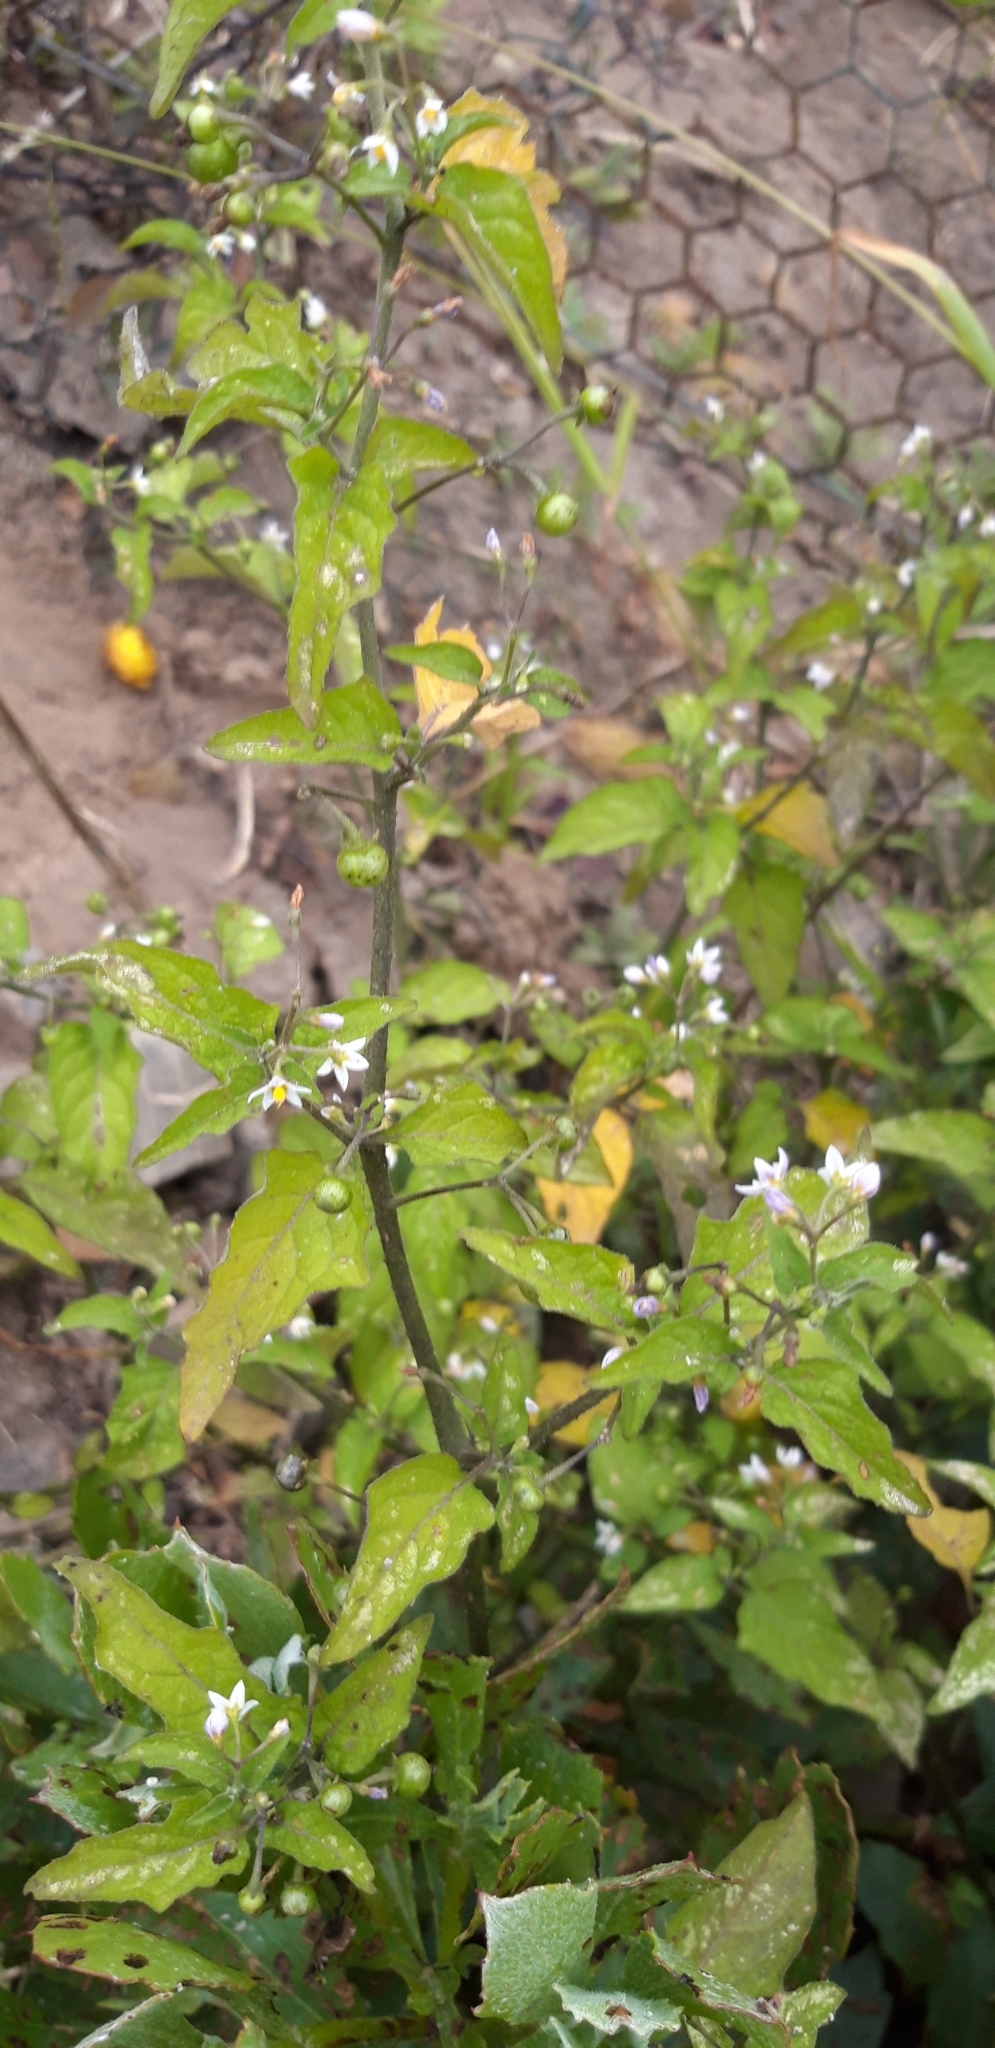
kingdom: Plantae
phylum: Tracheophyta
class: Magnoliopsida
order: Solanales
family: Solanaceae
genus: Solanum
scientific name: Solanum nigrum
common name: Black nightshade
